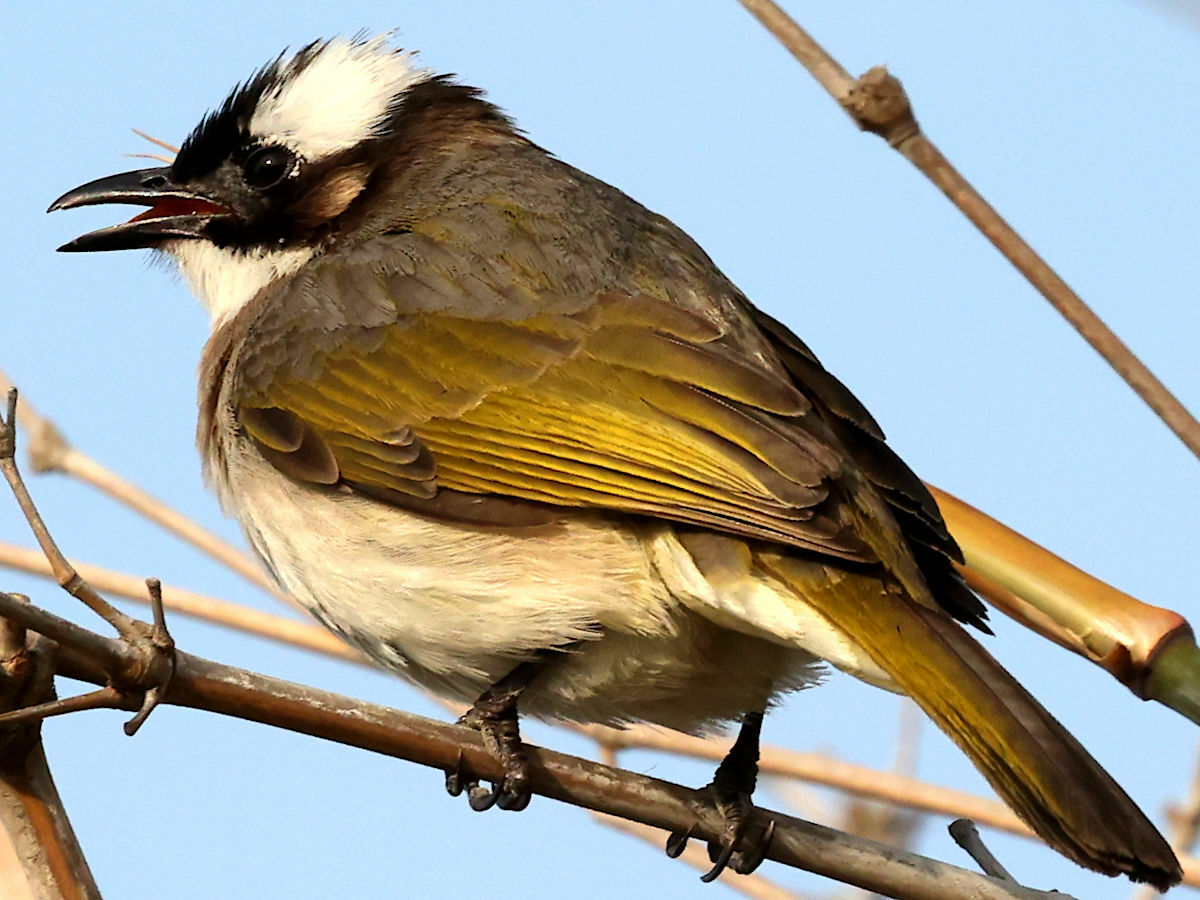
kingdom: Animalia
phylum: Chordata
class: Aves
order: Passeriformes
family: Pycnonotidae
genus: Pycnonotus
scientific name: Pycnonotus sinensis
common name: Light-vented bulbul
